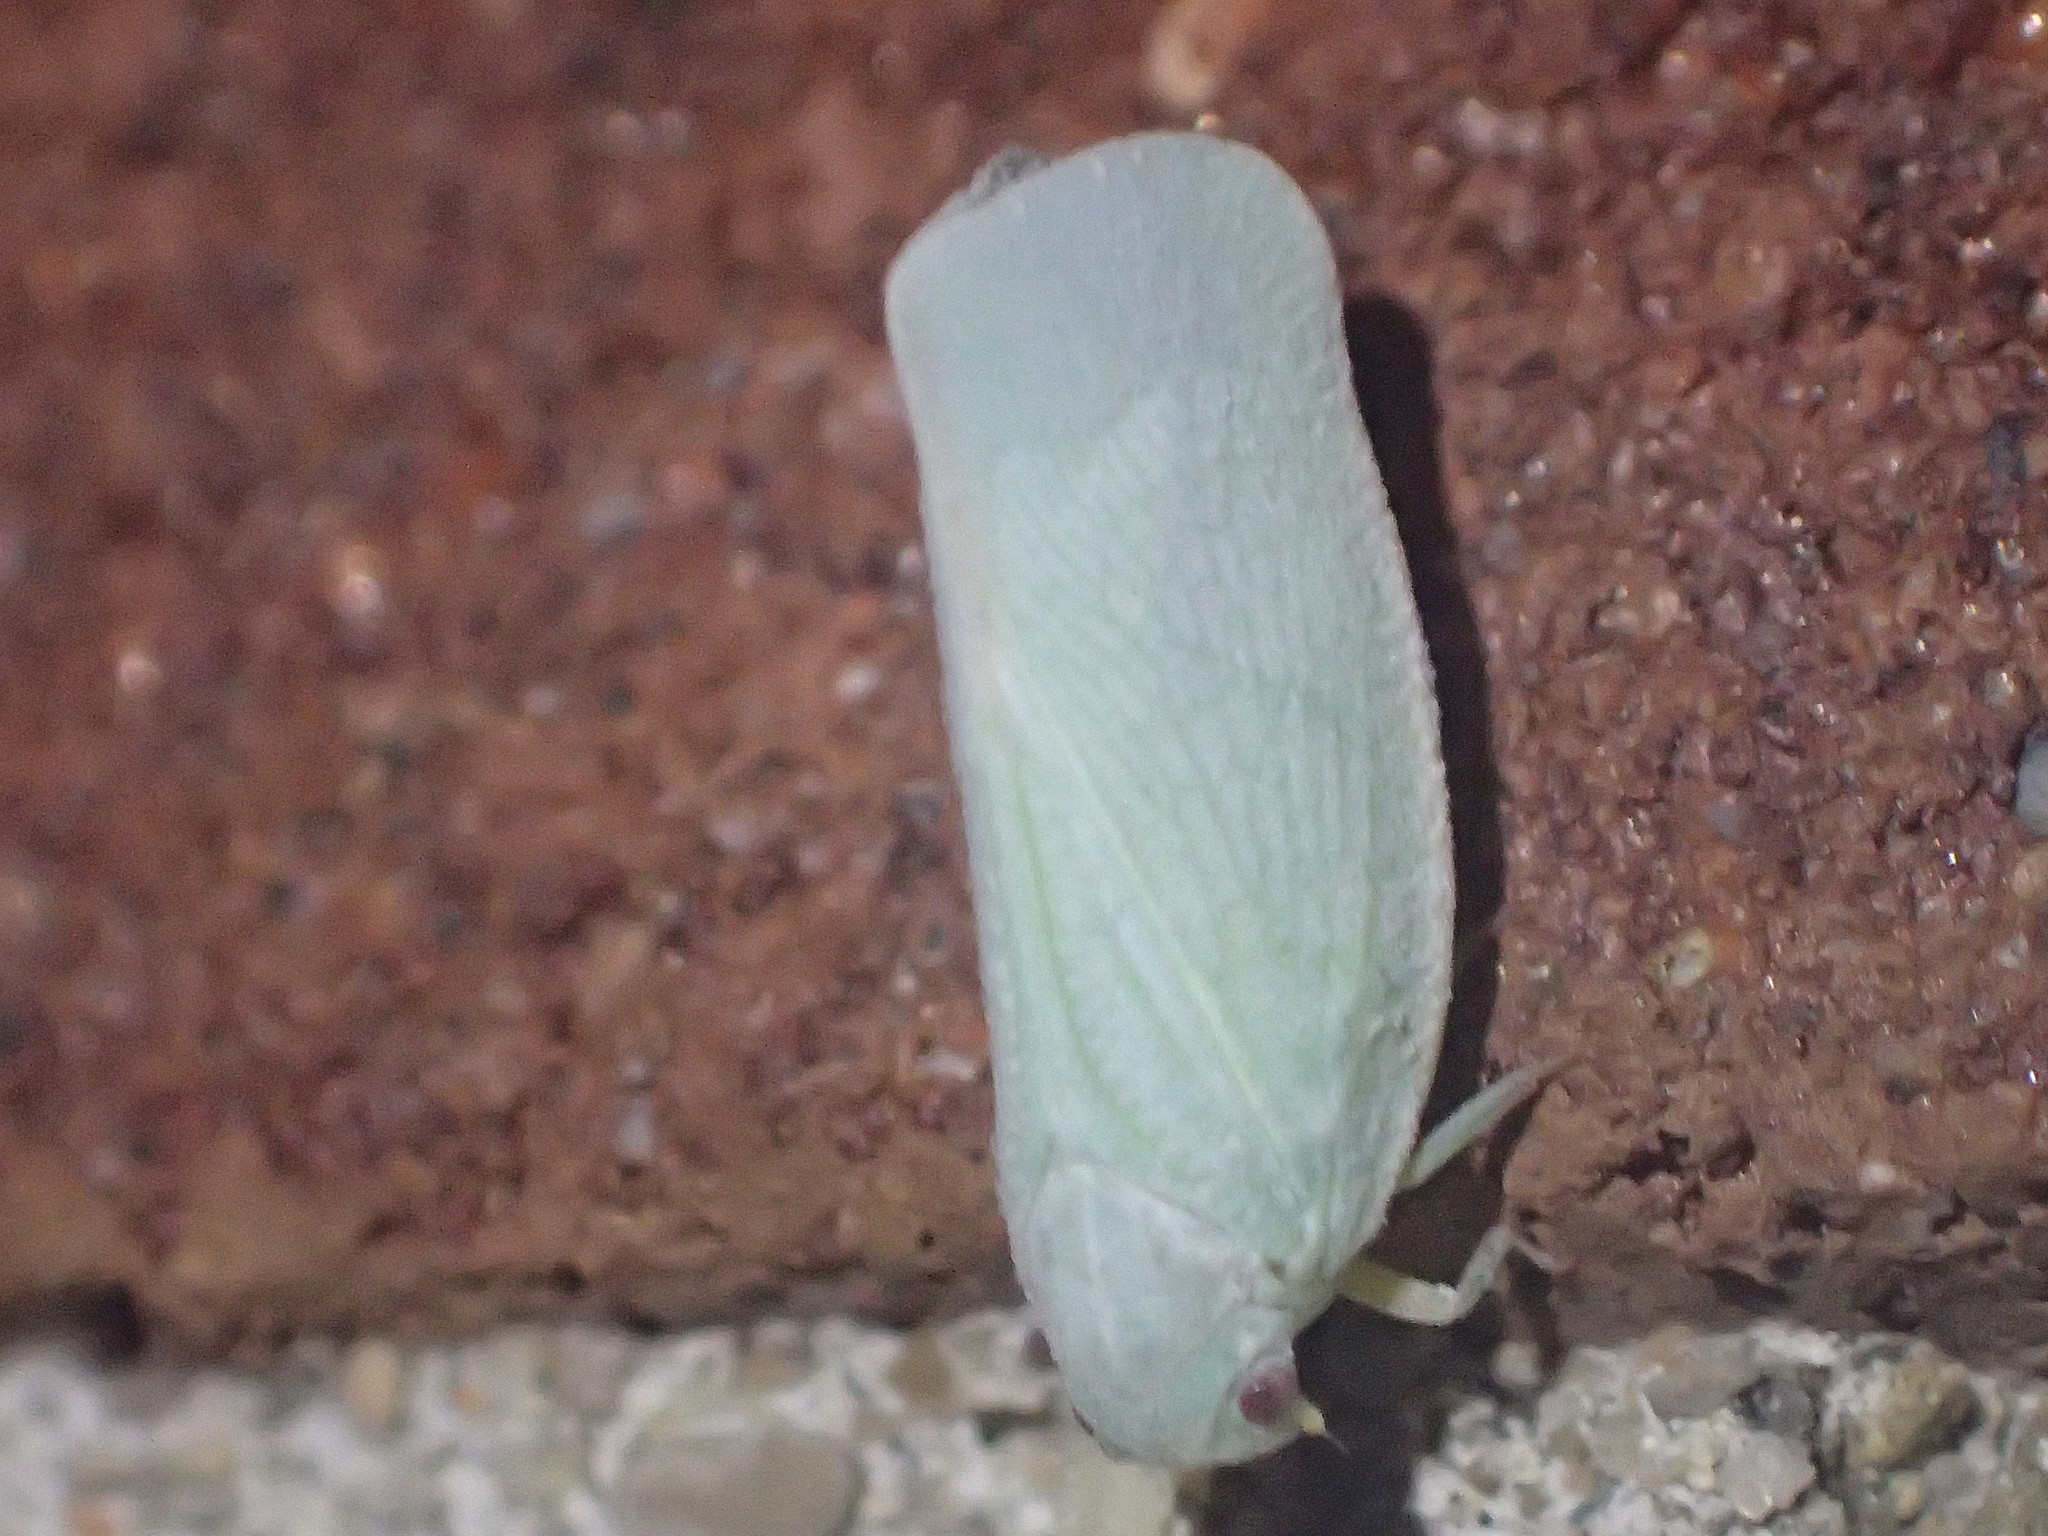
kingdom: Animalia
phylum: Arthropoda
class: Insecta
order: Hemiptera
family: Flatidae
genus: Flatormenis
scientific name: Flatormenis proxima
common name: Northern flatid planthopper
